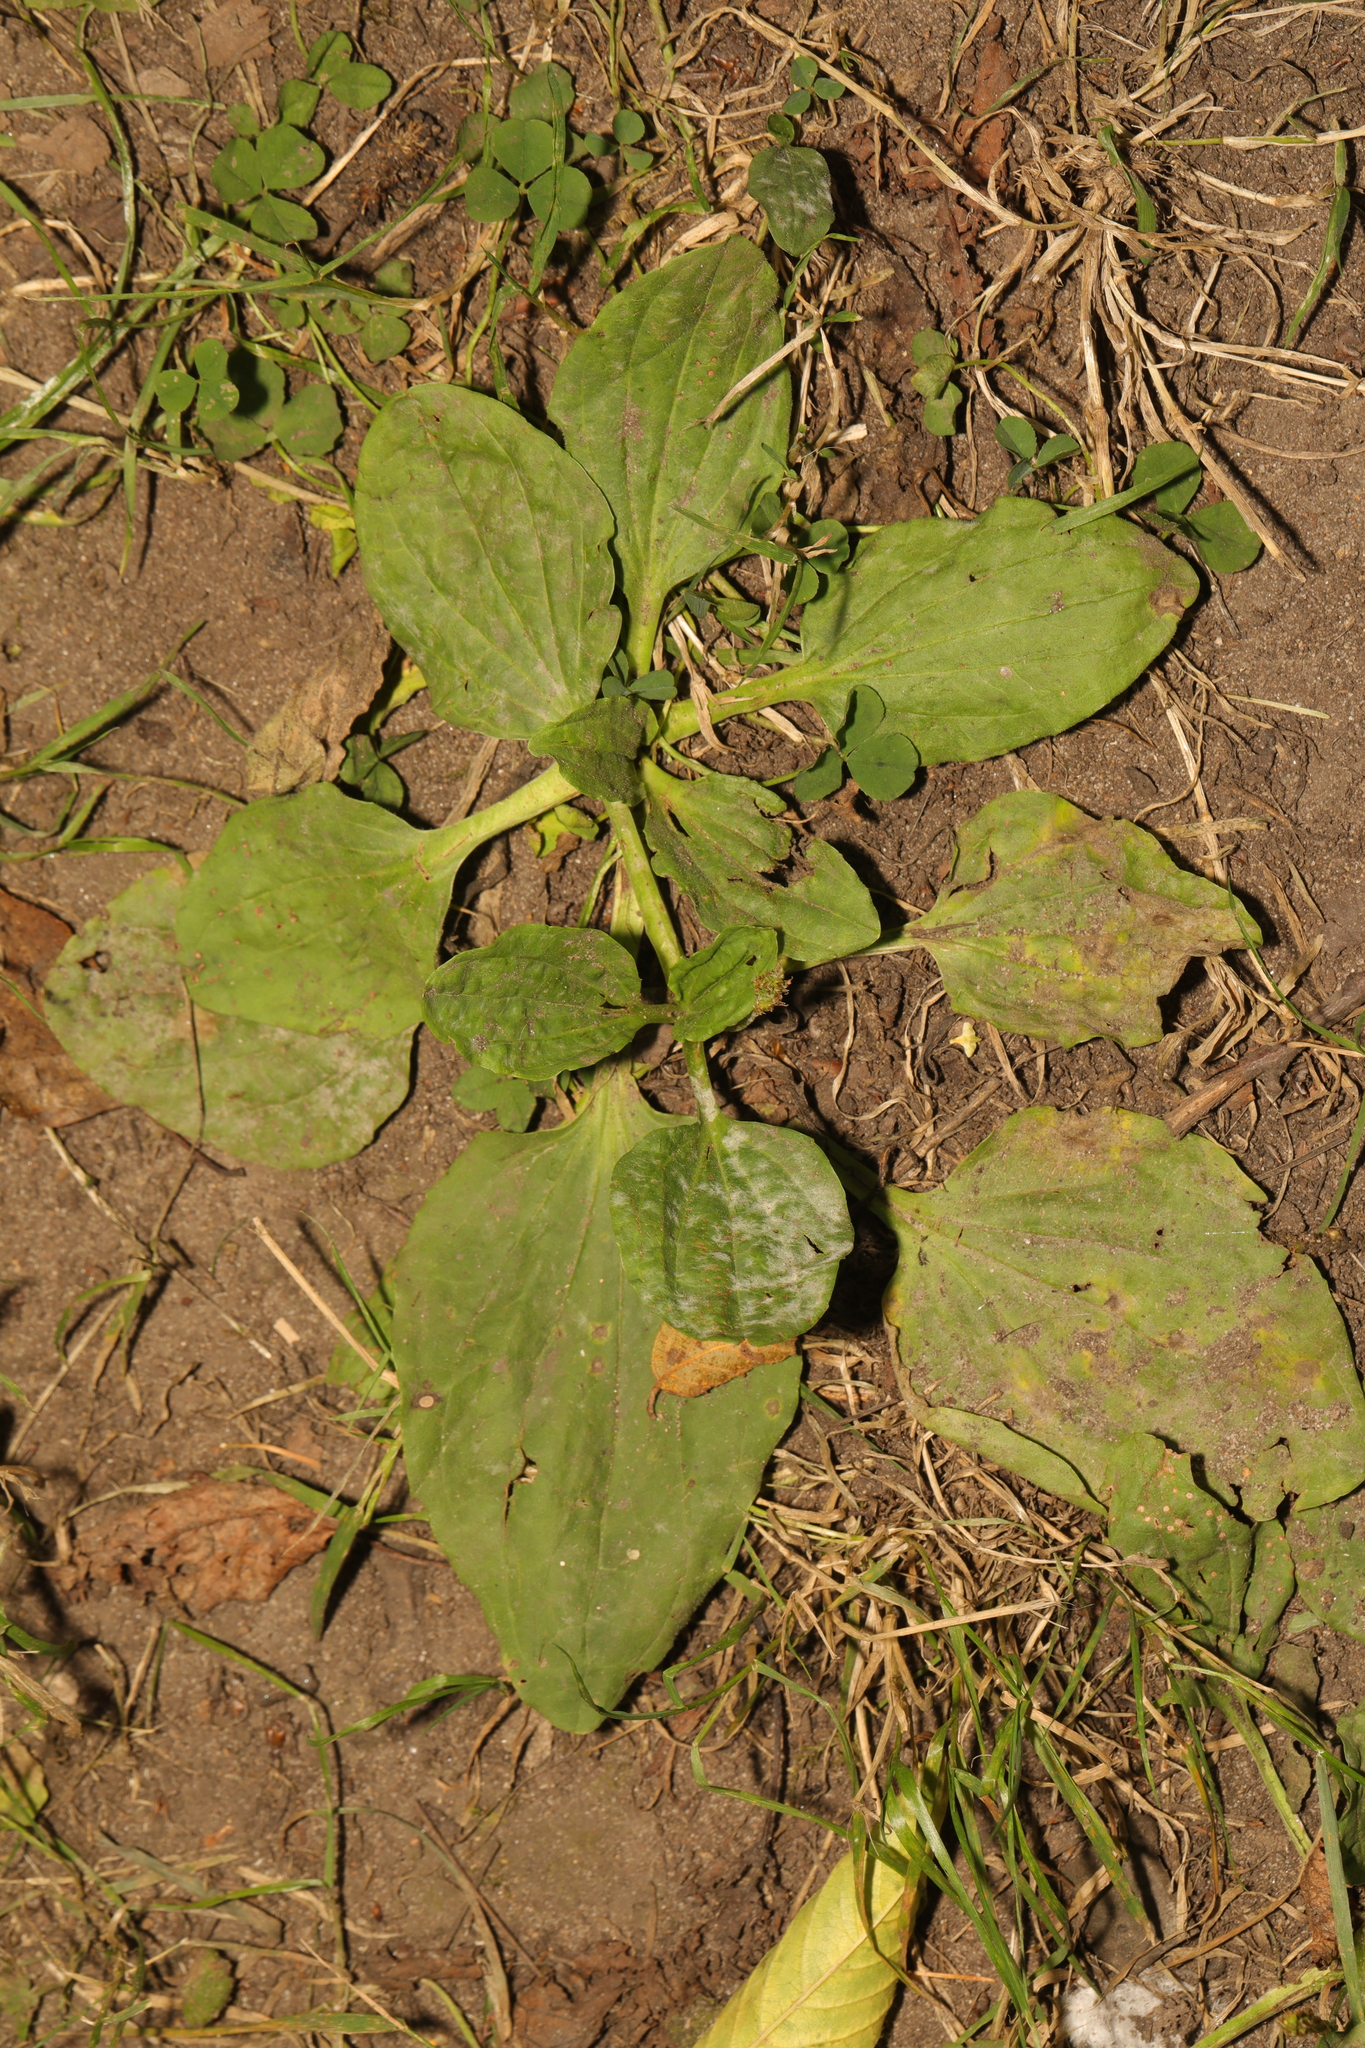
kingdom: Plantae
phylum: Tracheophyta
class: Magnoliopsida
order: Lamiales
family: Plantaginaceae
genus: Plantago
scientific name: Plantago major
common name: Common plantain
